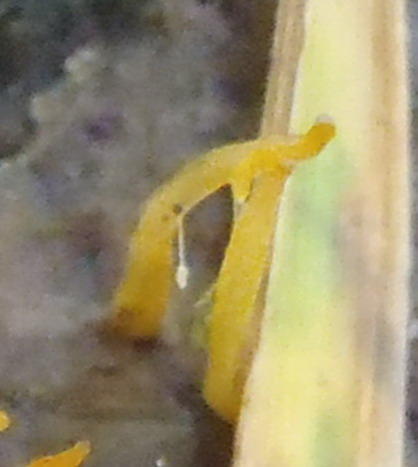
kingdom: Fungi
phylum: Basidiomycota
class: Dacrymycetes
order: Dacrymycetales
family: Dacrymycetaceae
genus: Calocera
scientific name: Calocera cornea
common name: Small stagshorn
